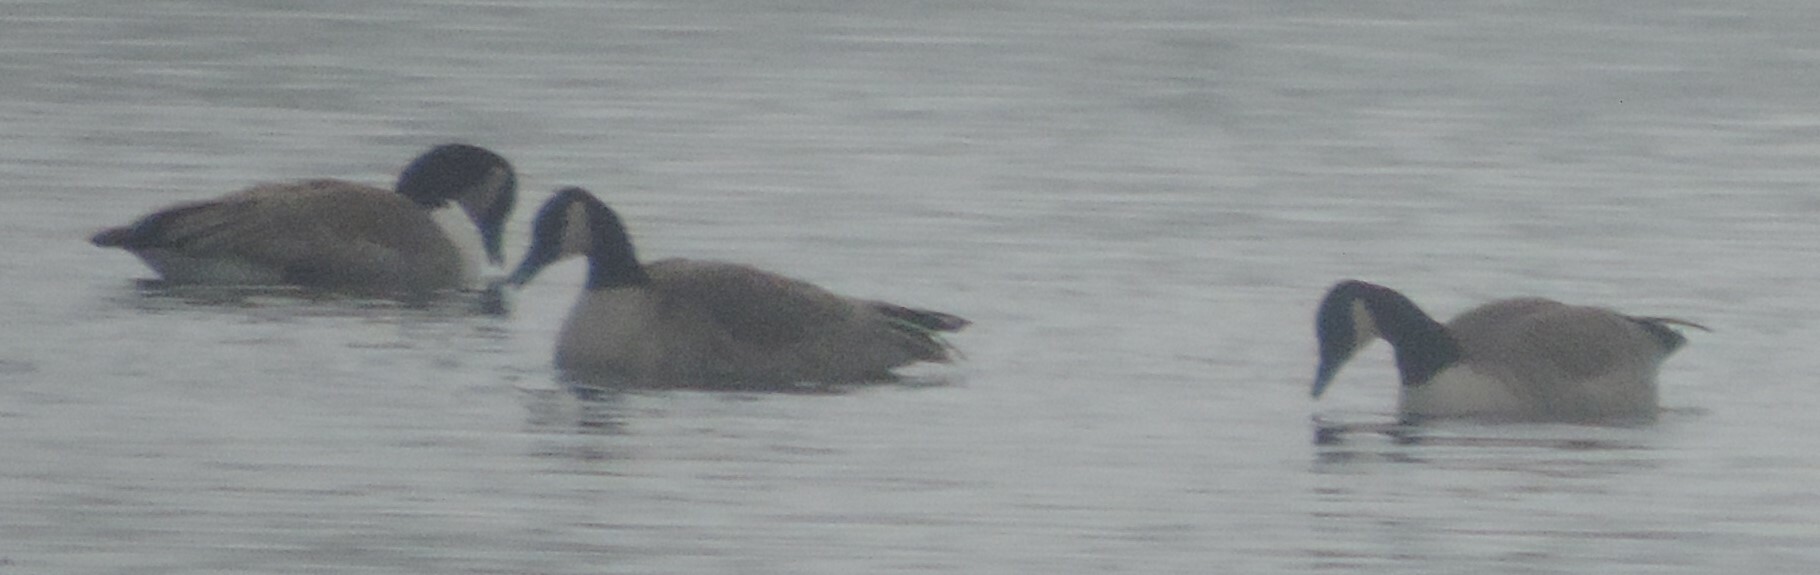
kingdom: Animalia
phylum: Chordata
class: Aves
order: Anseriformes
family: Anatidae
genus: Branta
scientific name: Branta canadensis
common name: Canada goose
